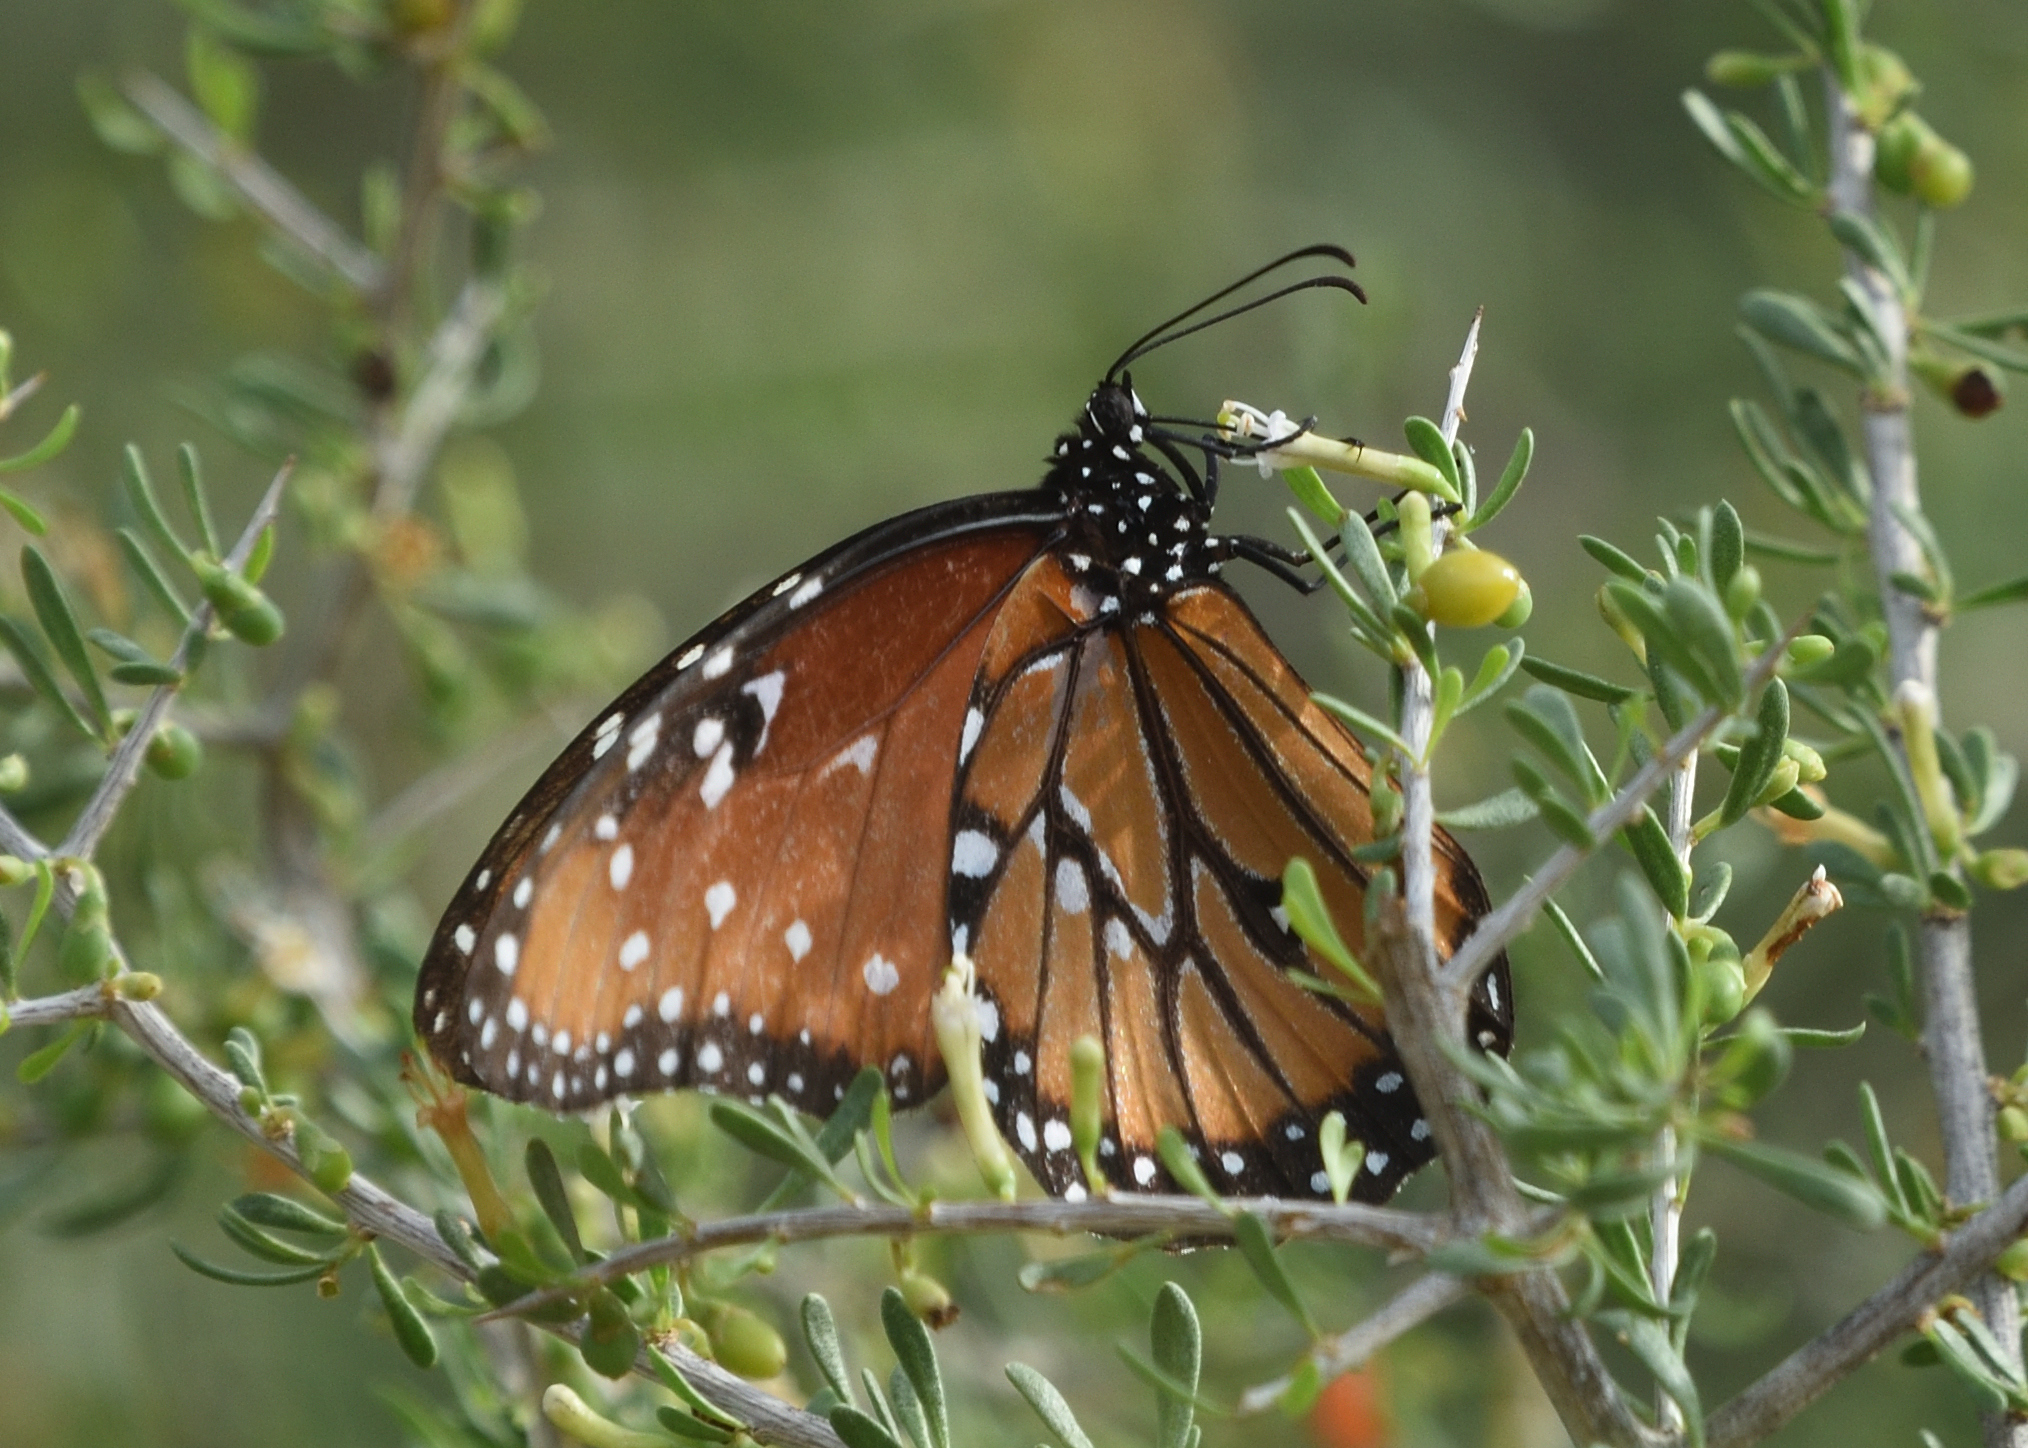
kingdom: Animalia
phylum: Arthropoda
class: Insecta
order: Lepidoptera
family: Nymphalidae
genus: Danaus
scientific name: Danaus gilippus
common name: Queen
